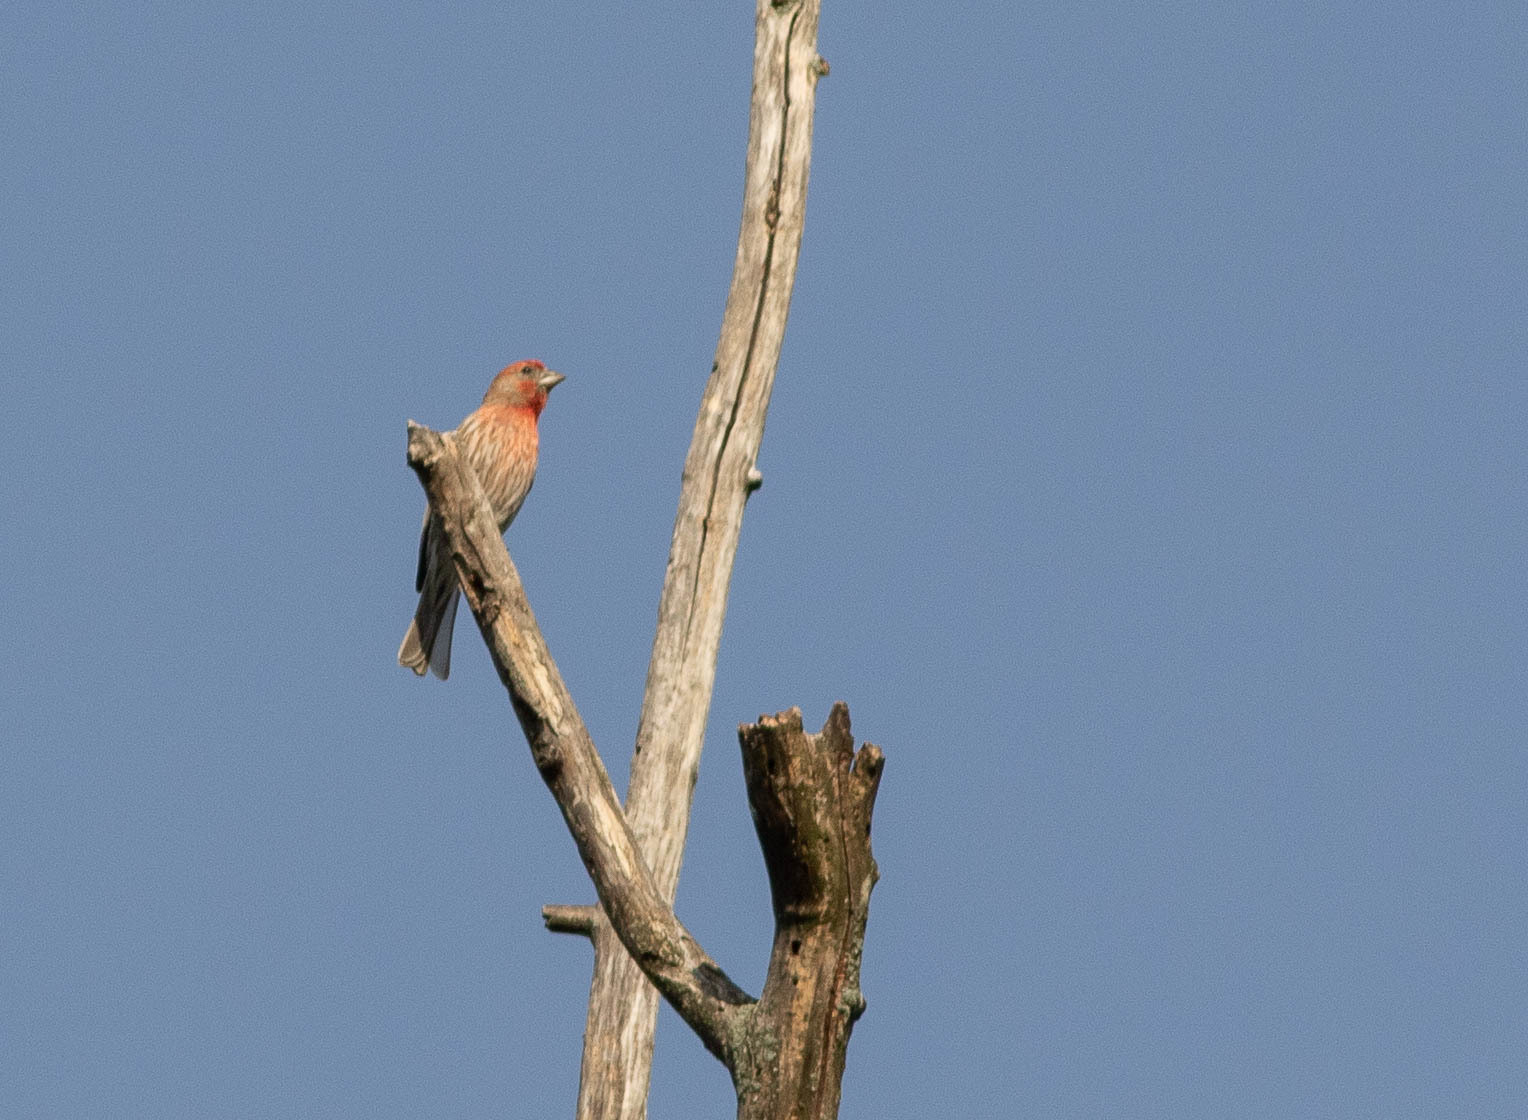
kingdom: Animalia
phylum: Chordata
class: Aves
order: Passeriformes
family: Fringillidae
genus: Haemorhous
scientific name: Haemorhous mexicanus
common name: House finch
